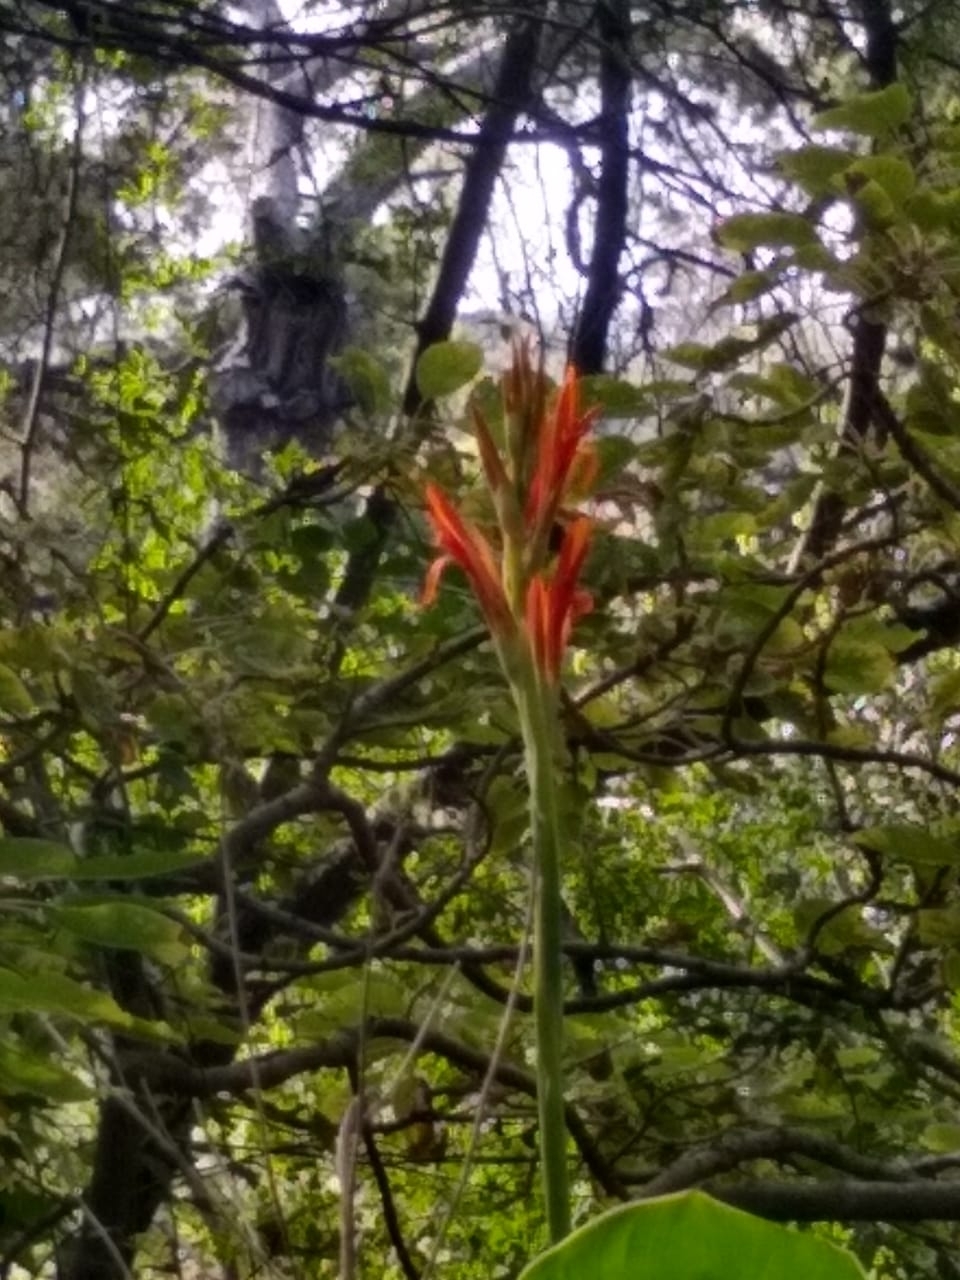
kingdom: Plantae
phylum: Tracheophyta
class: Liliopsida
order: Zingiberales
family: Cannaceae
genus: Canna
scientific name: Canna indica
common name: Indian shot
